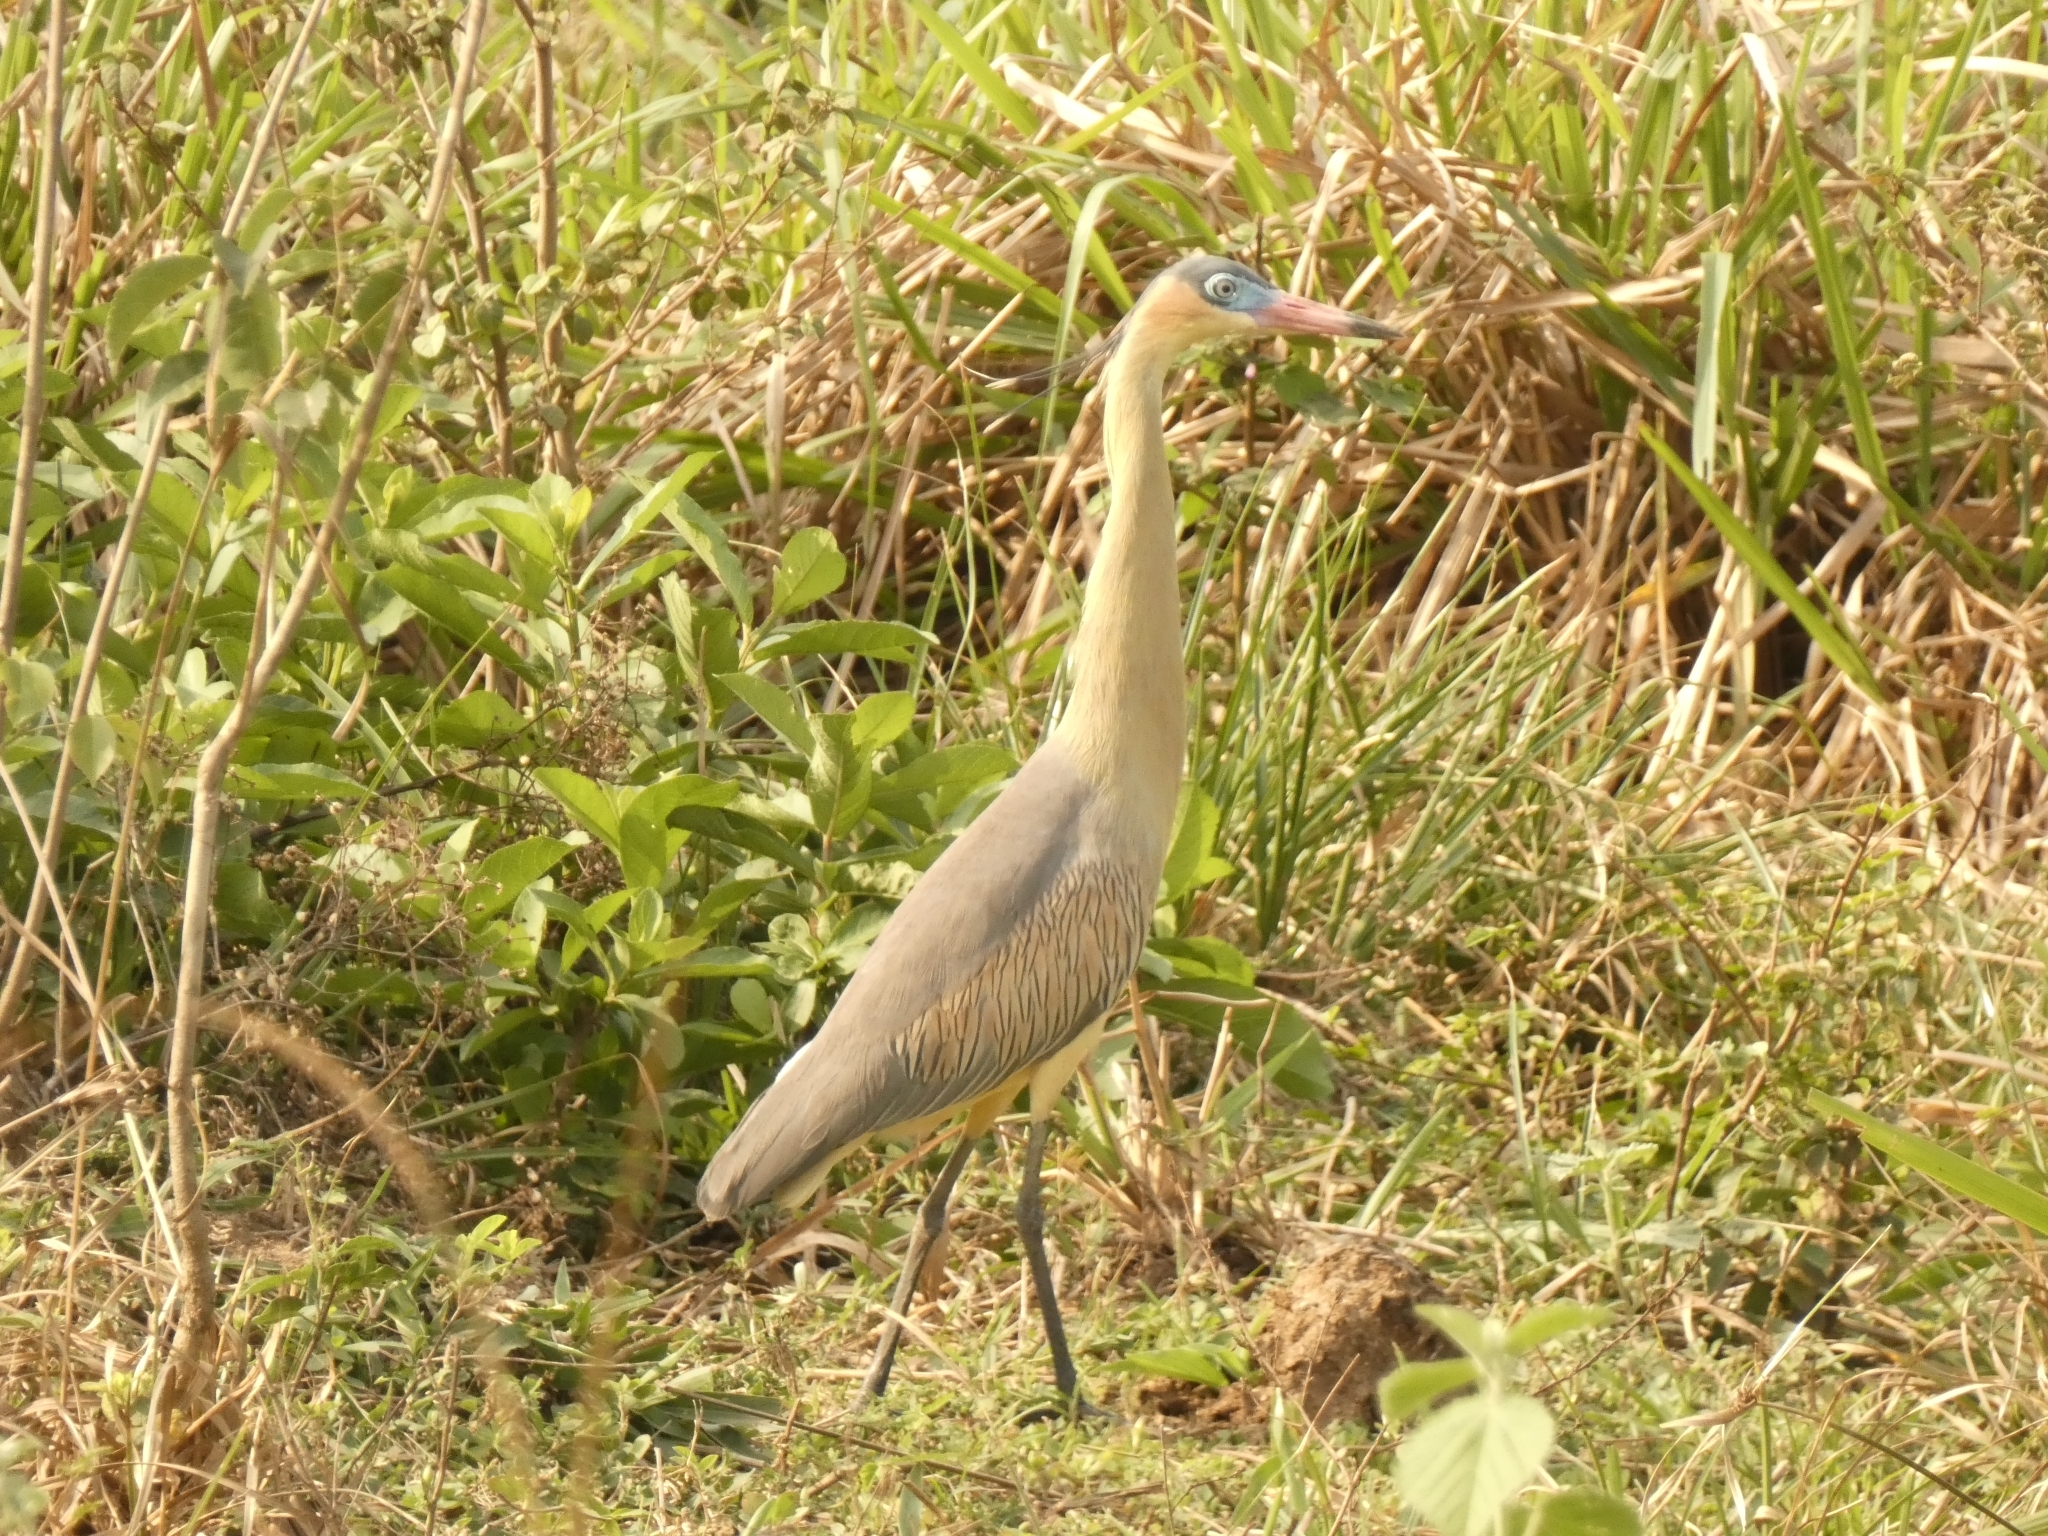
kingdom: Animalia
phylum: Chordata
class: Aves
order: Pelecaniformes
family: Ardeidae
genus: Syrigma
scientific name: Syrigma sibilatrix
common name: Whistling heron
